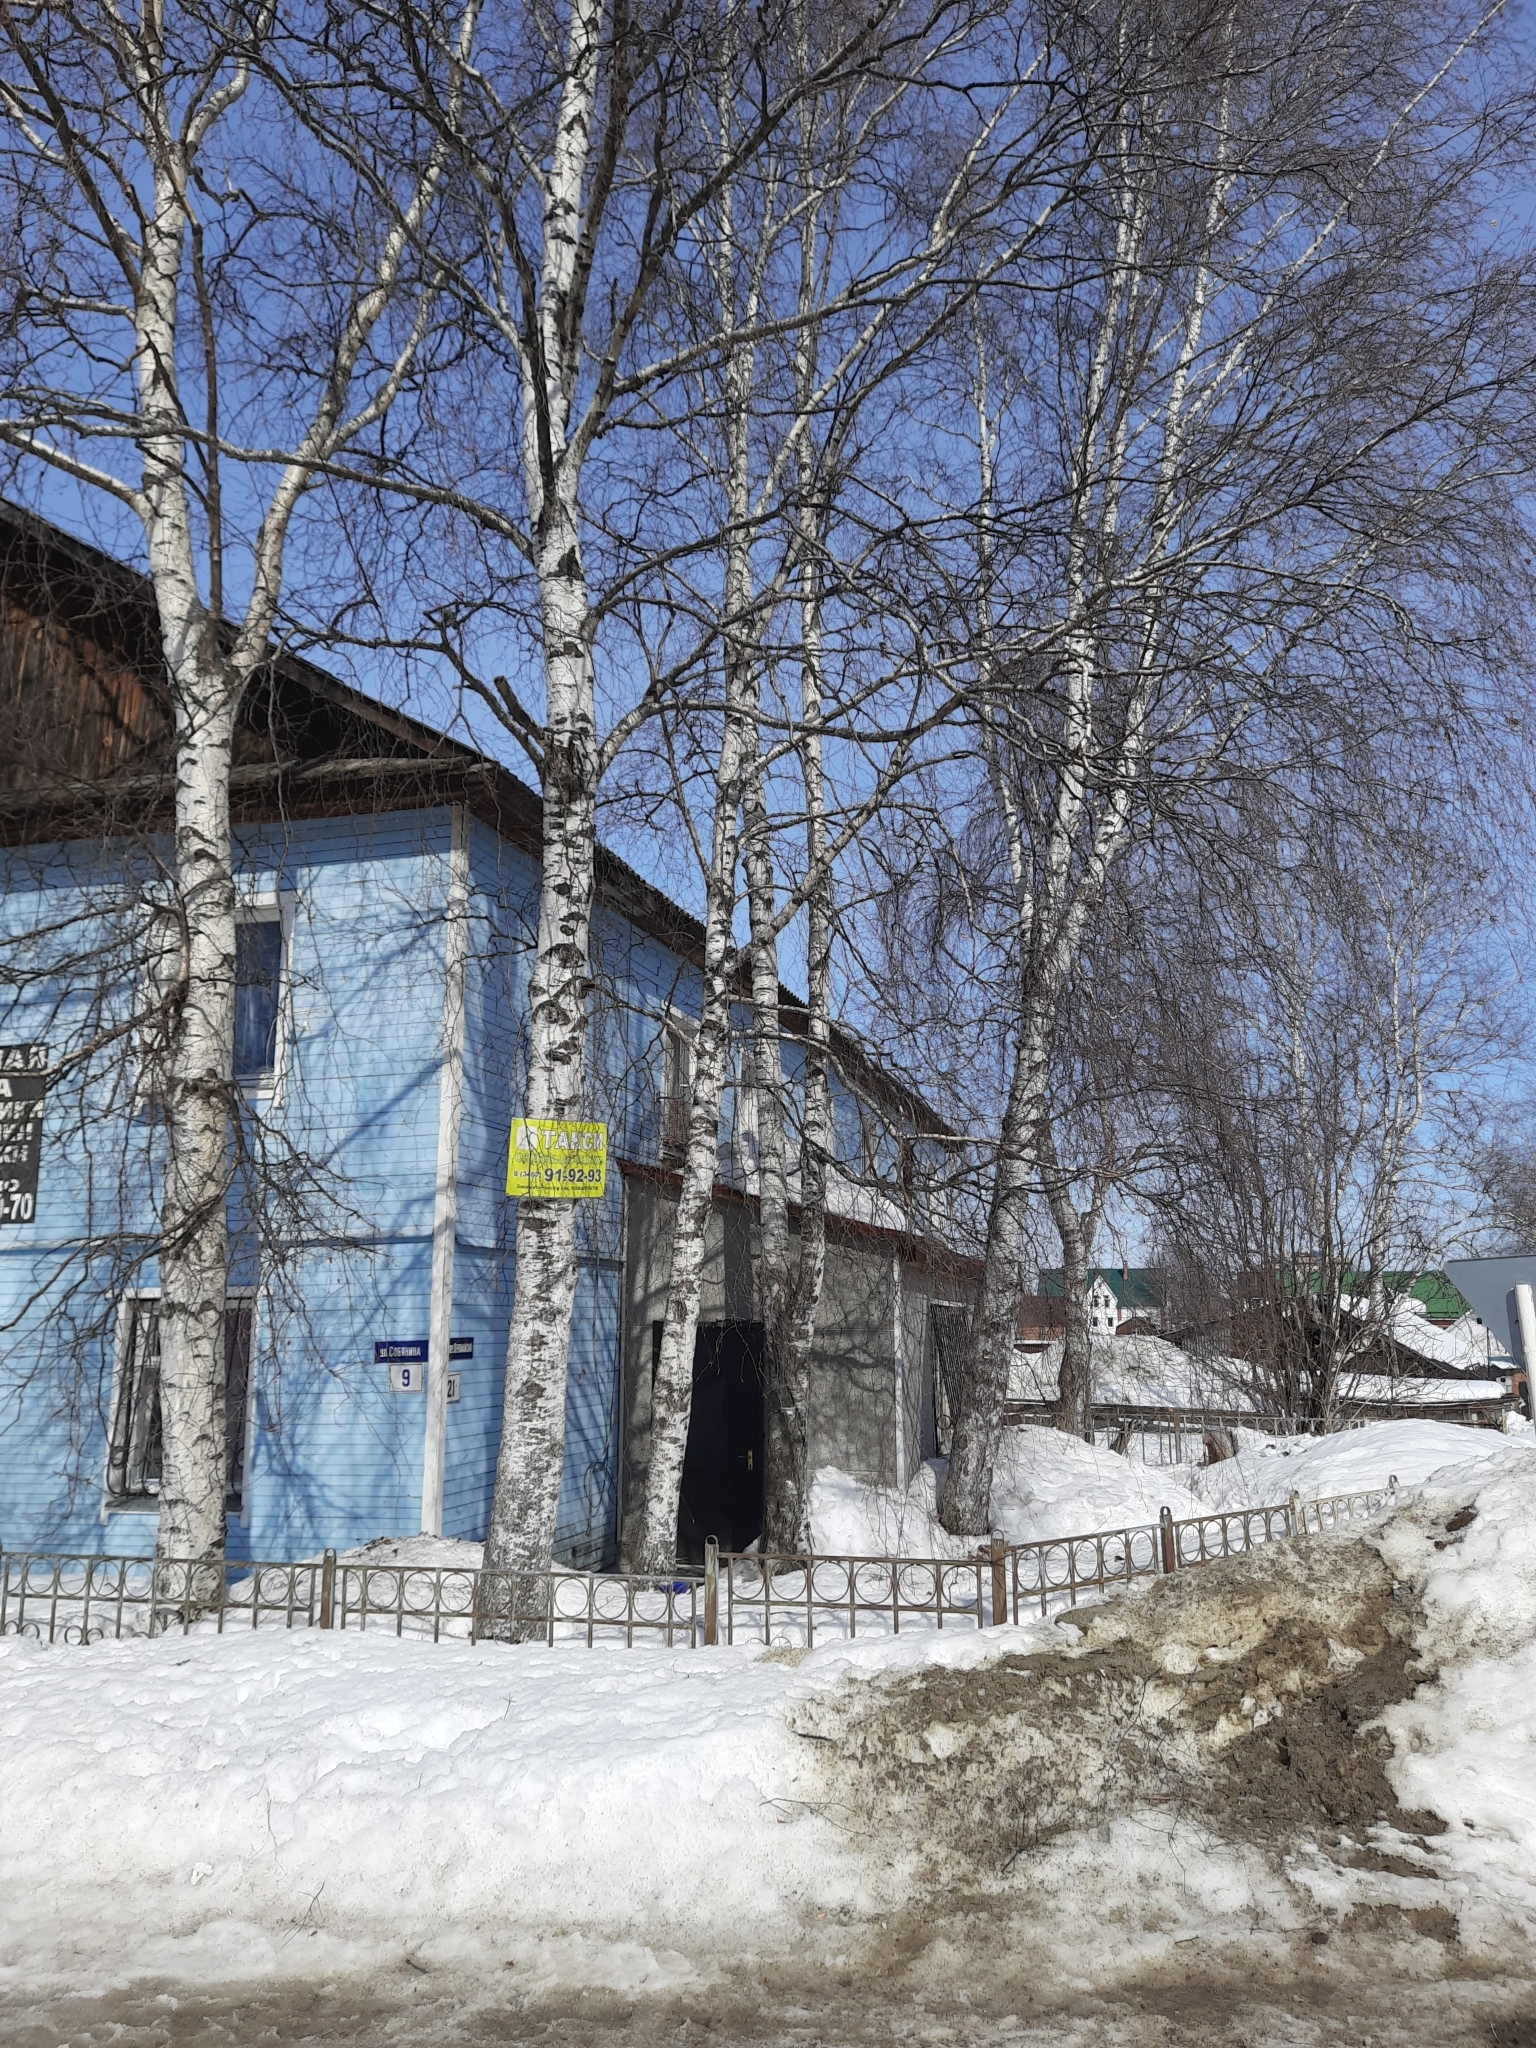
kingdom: Plantae
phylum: Tracheophyta
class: Magnoliopsida
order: Fagales
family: Betulaceae
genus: Betula
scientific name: Betula pendula
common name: Silver birch
